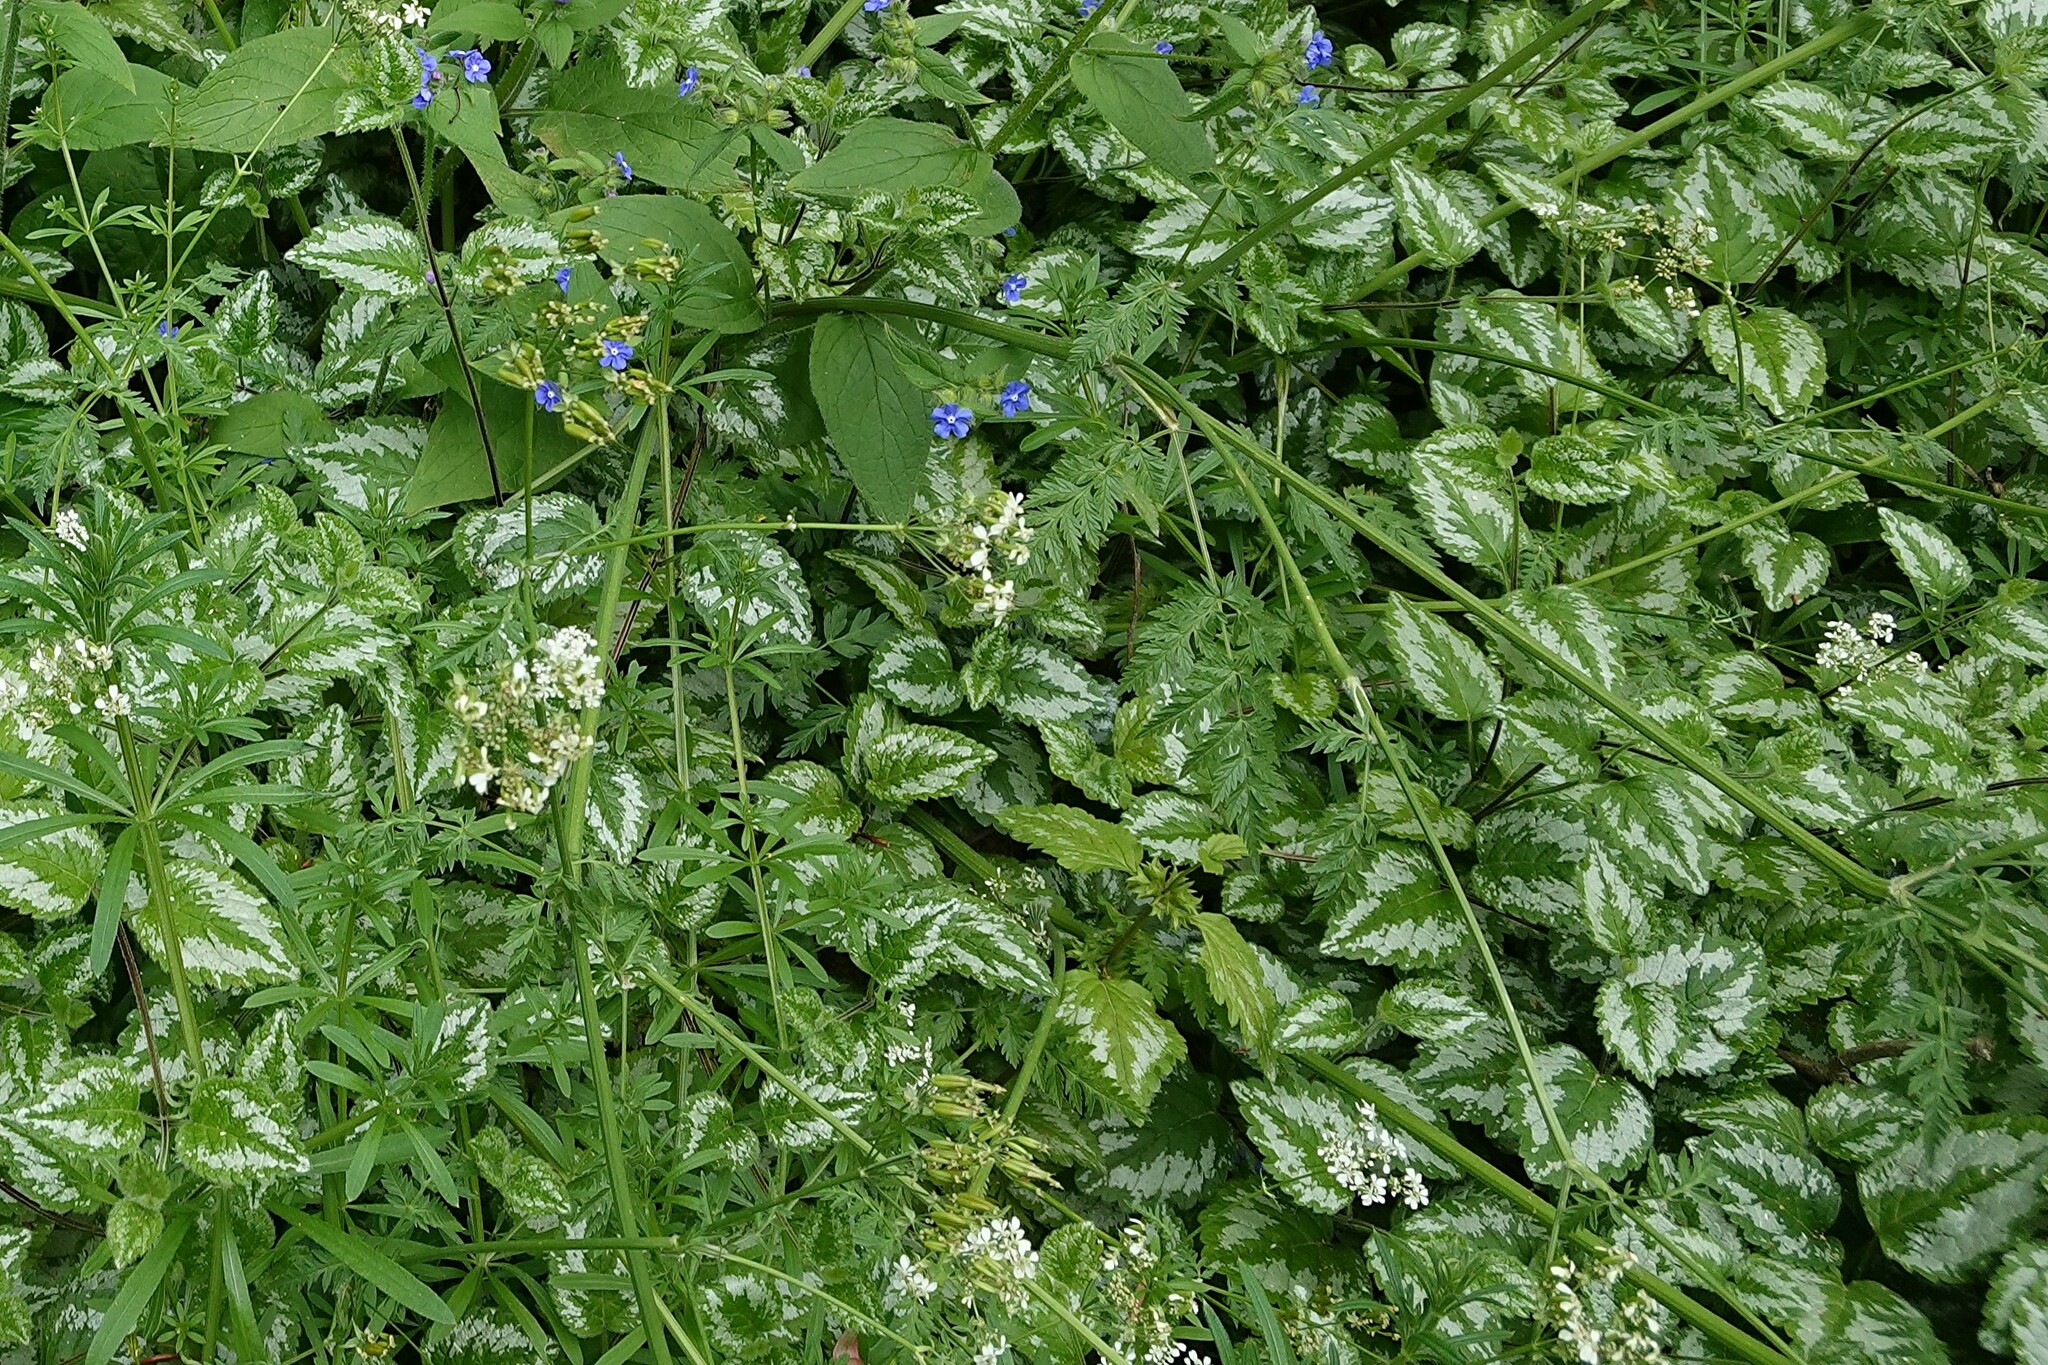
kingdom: Plantae
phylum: Tracheophyta
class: Magnoliopsida
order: Lamiales
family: Lamiaceae
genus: Lamium
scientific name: Lamium galeobdolon
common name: Yellow archangel
